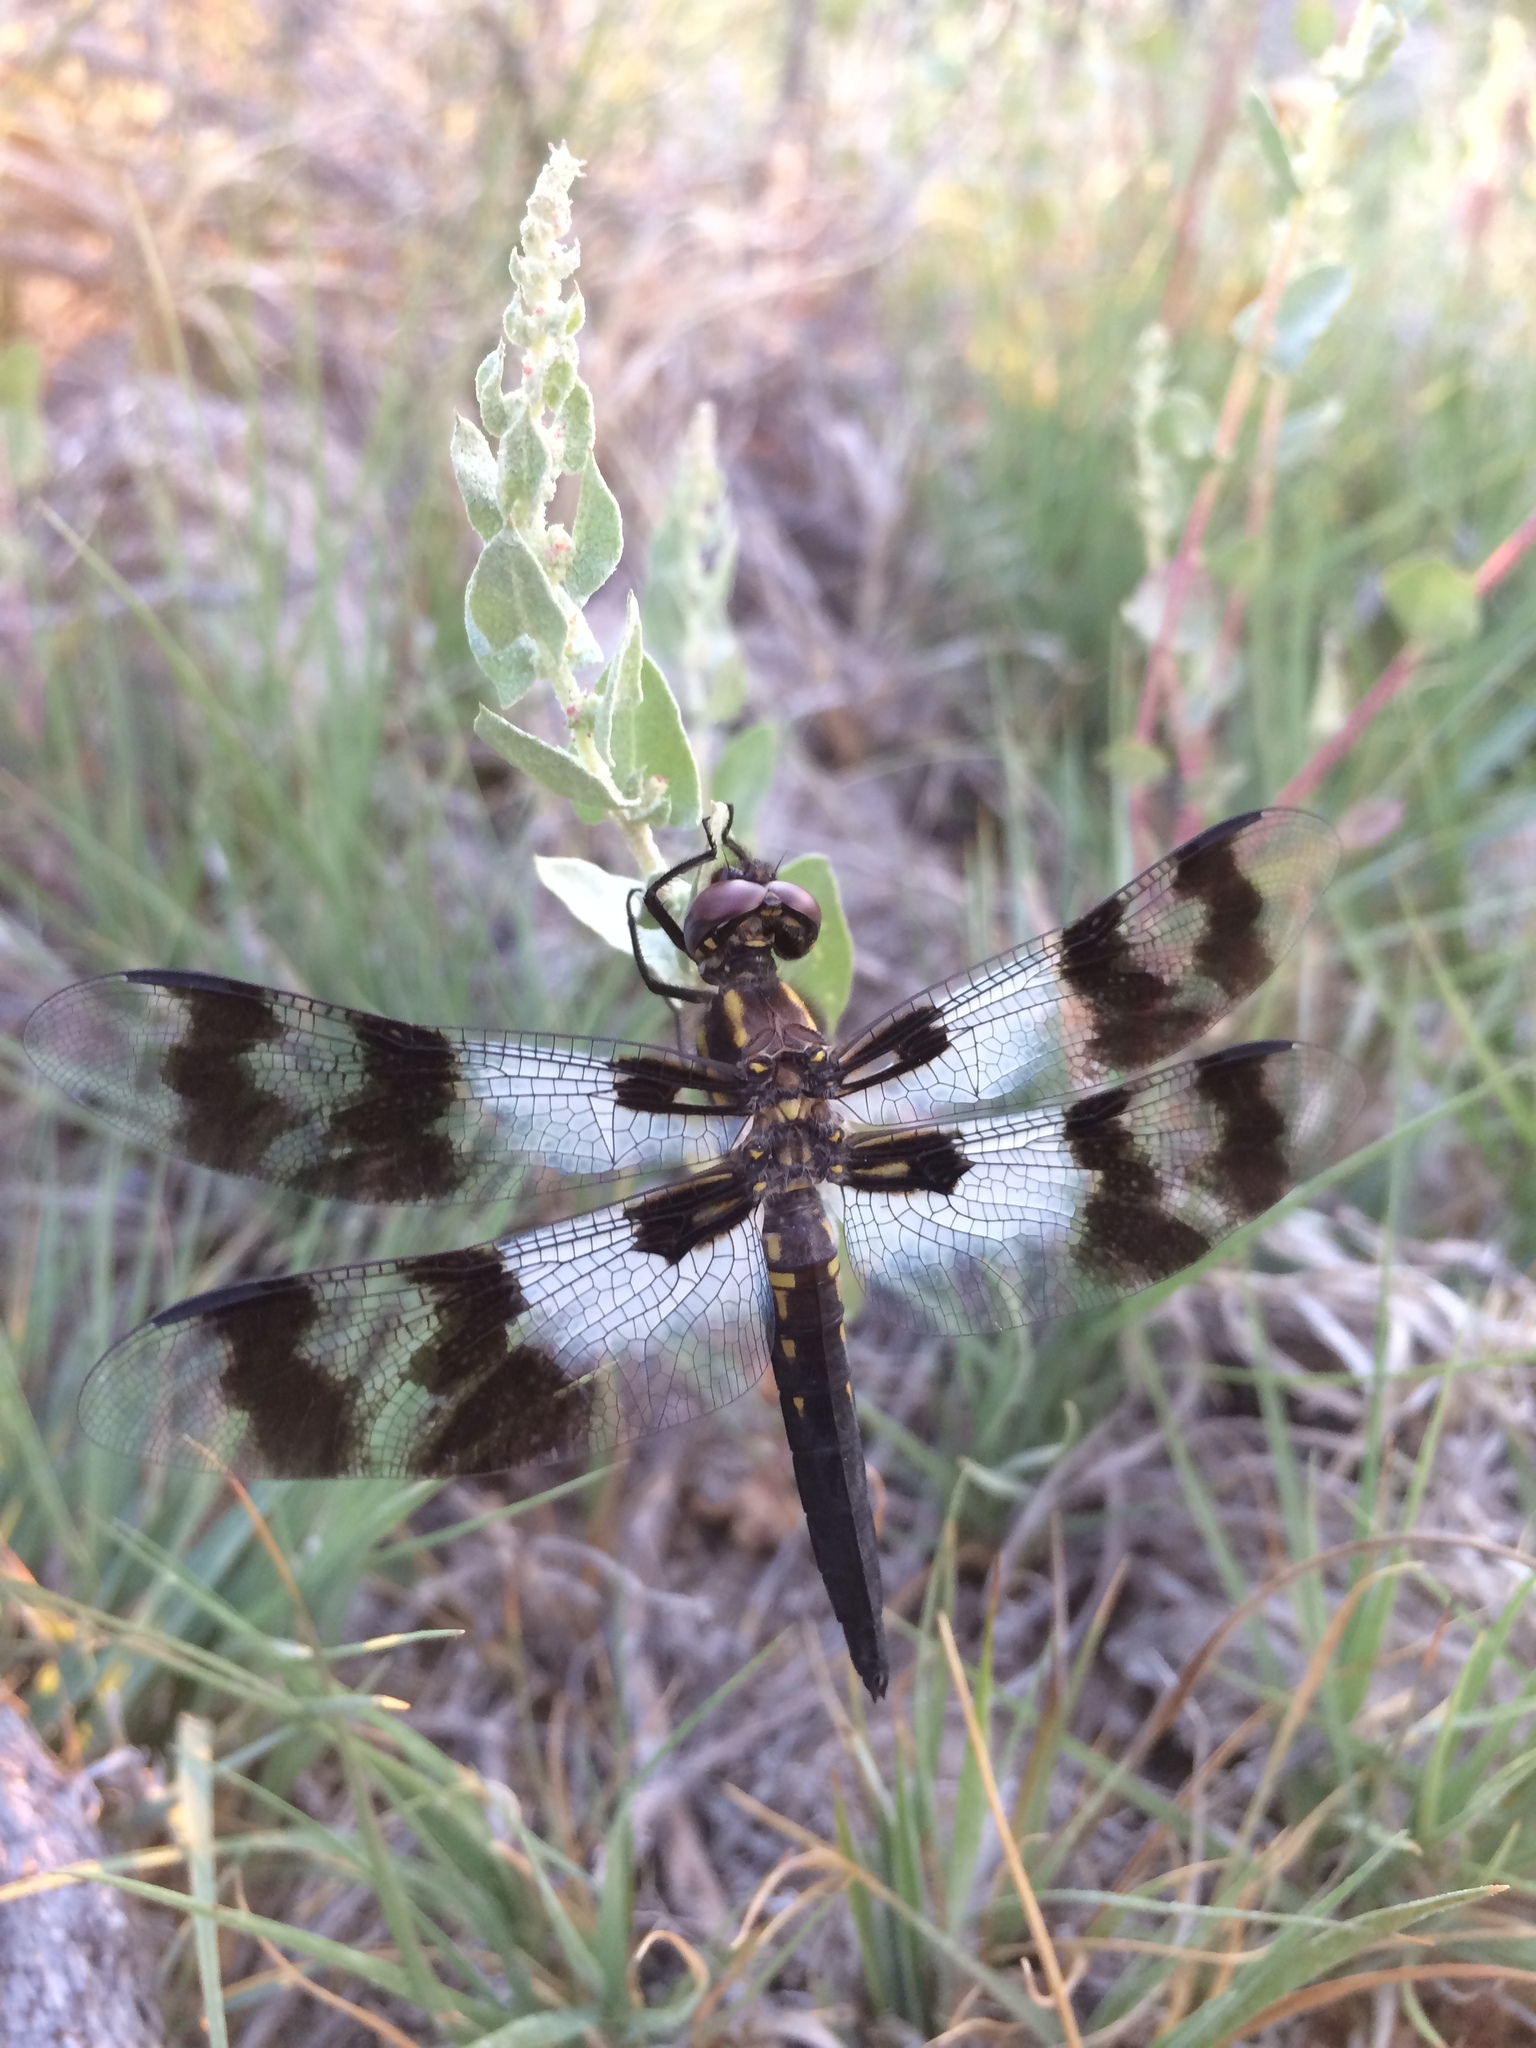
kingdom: Animalia
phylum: Arthropoda
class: Insecta
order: Odonata
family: Libellulidae
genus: Plathemis
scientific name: Plathemis subornata
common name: Desert whitetail
